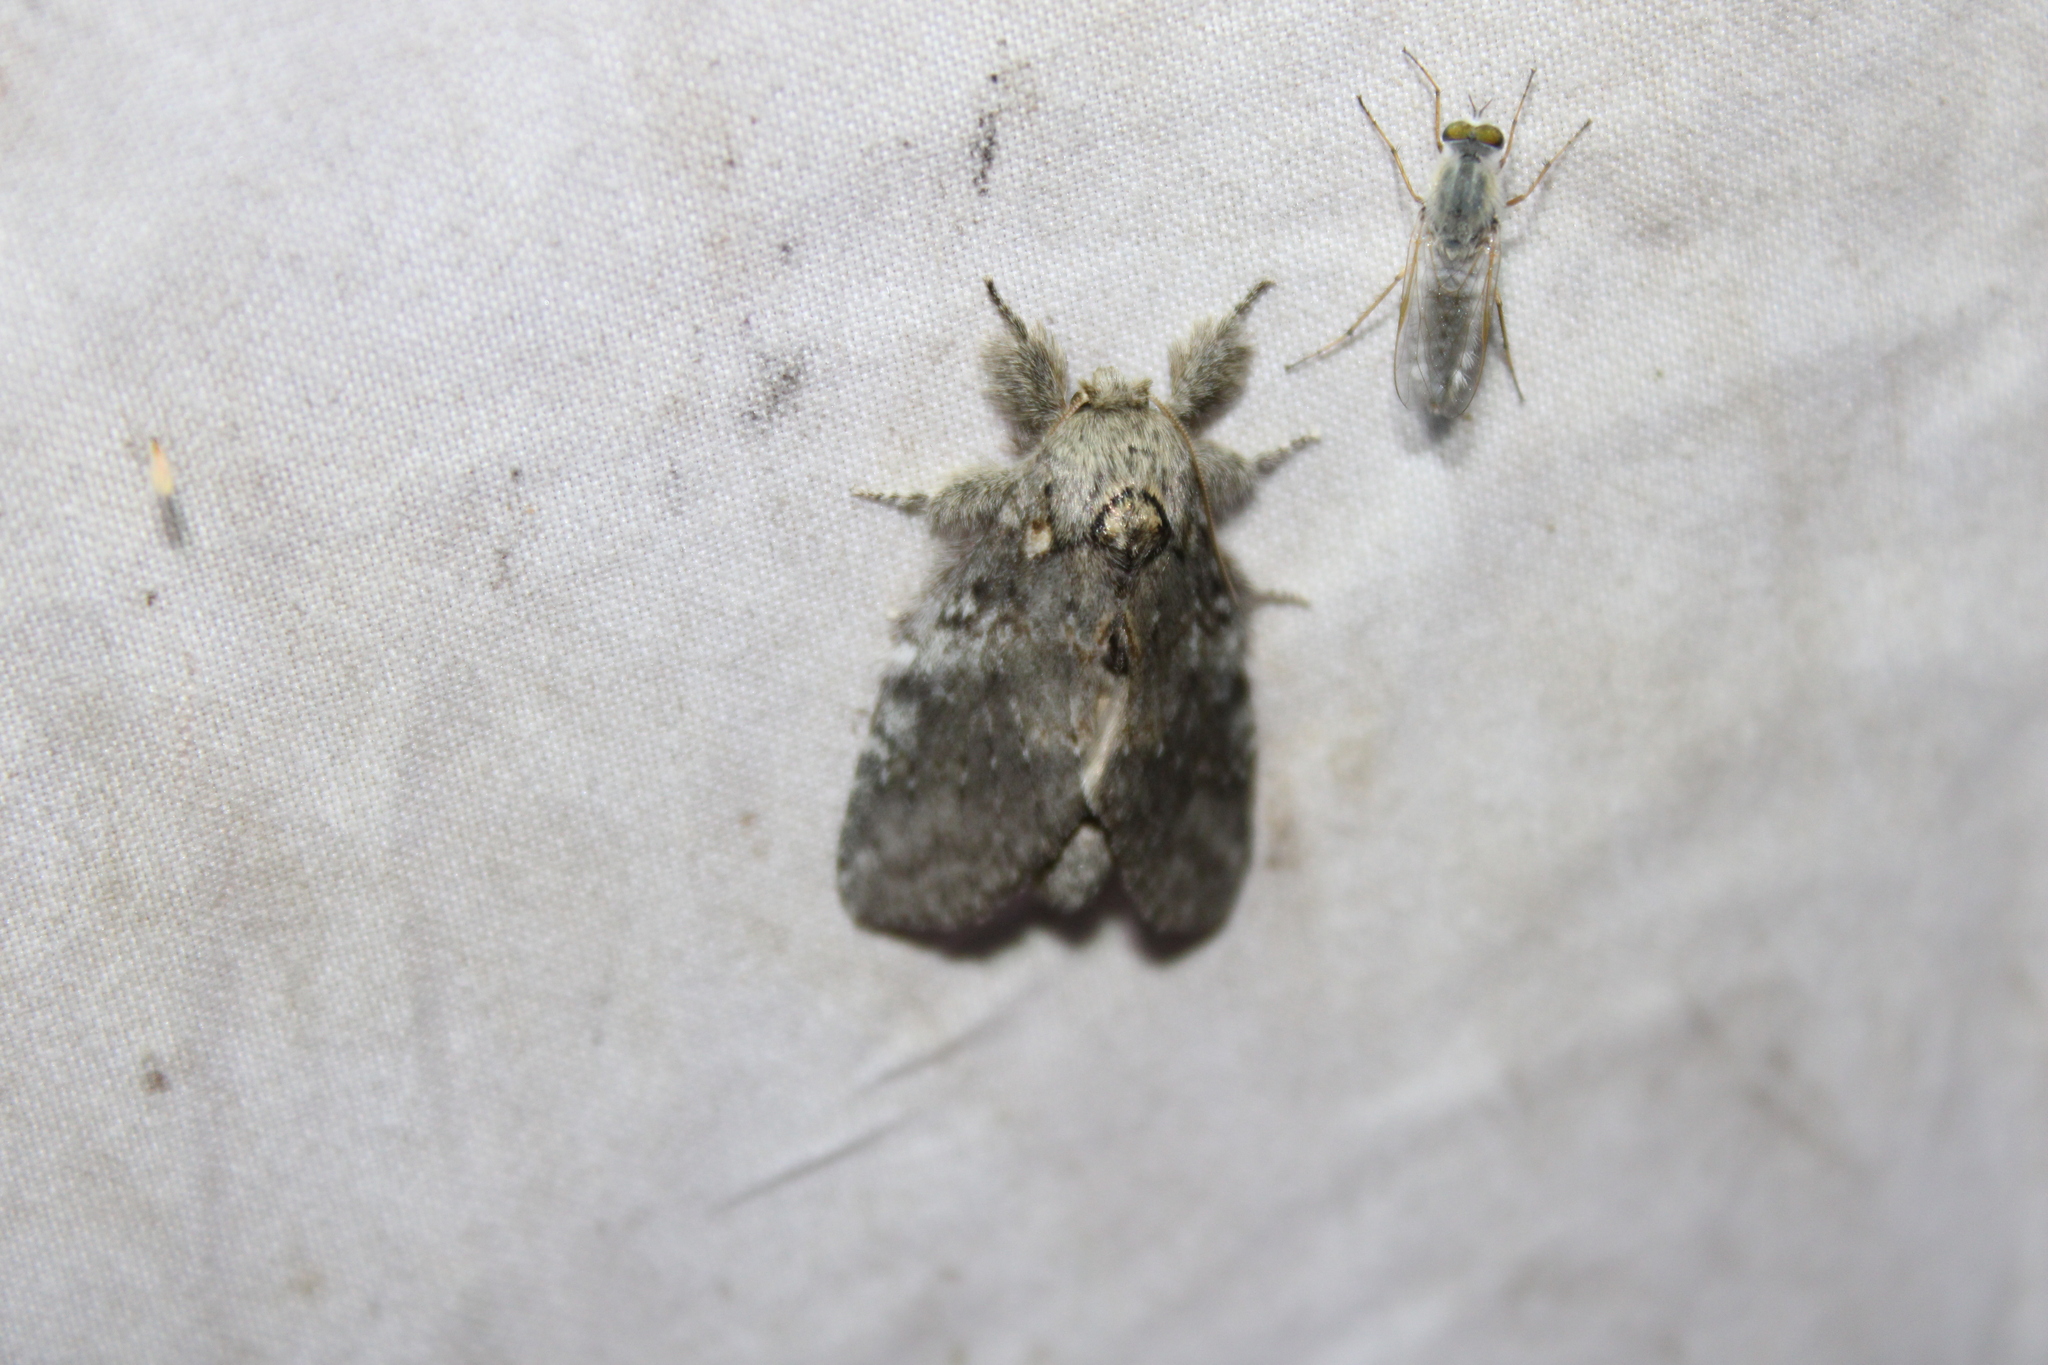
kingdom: Animalia
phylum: Arthropoda
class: Insecta
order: Lepidoptera
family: Notodontidae
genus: Peridea
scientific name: Peridea angulosa
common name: Angulose prominent
